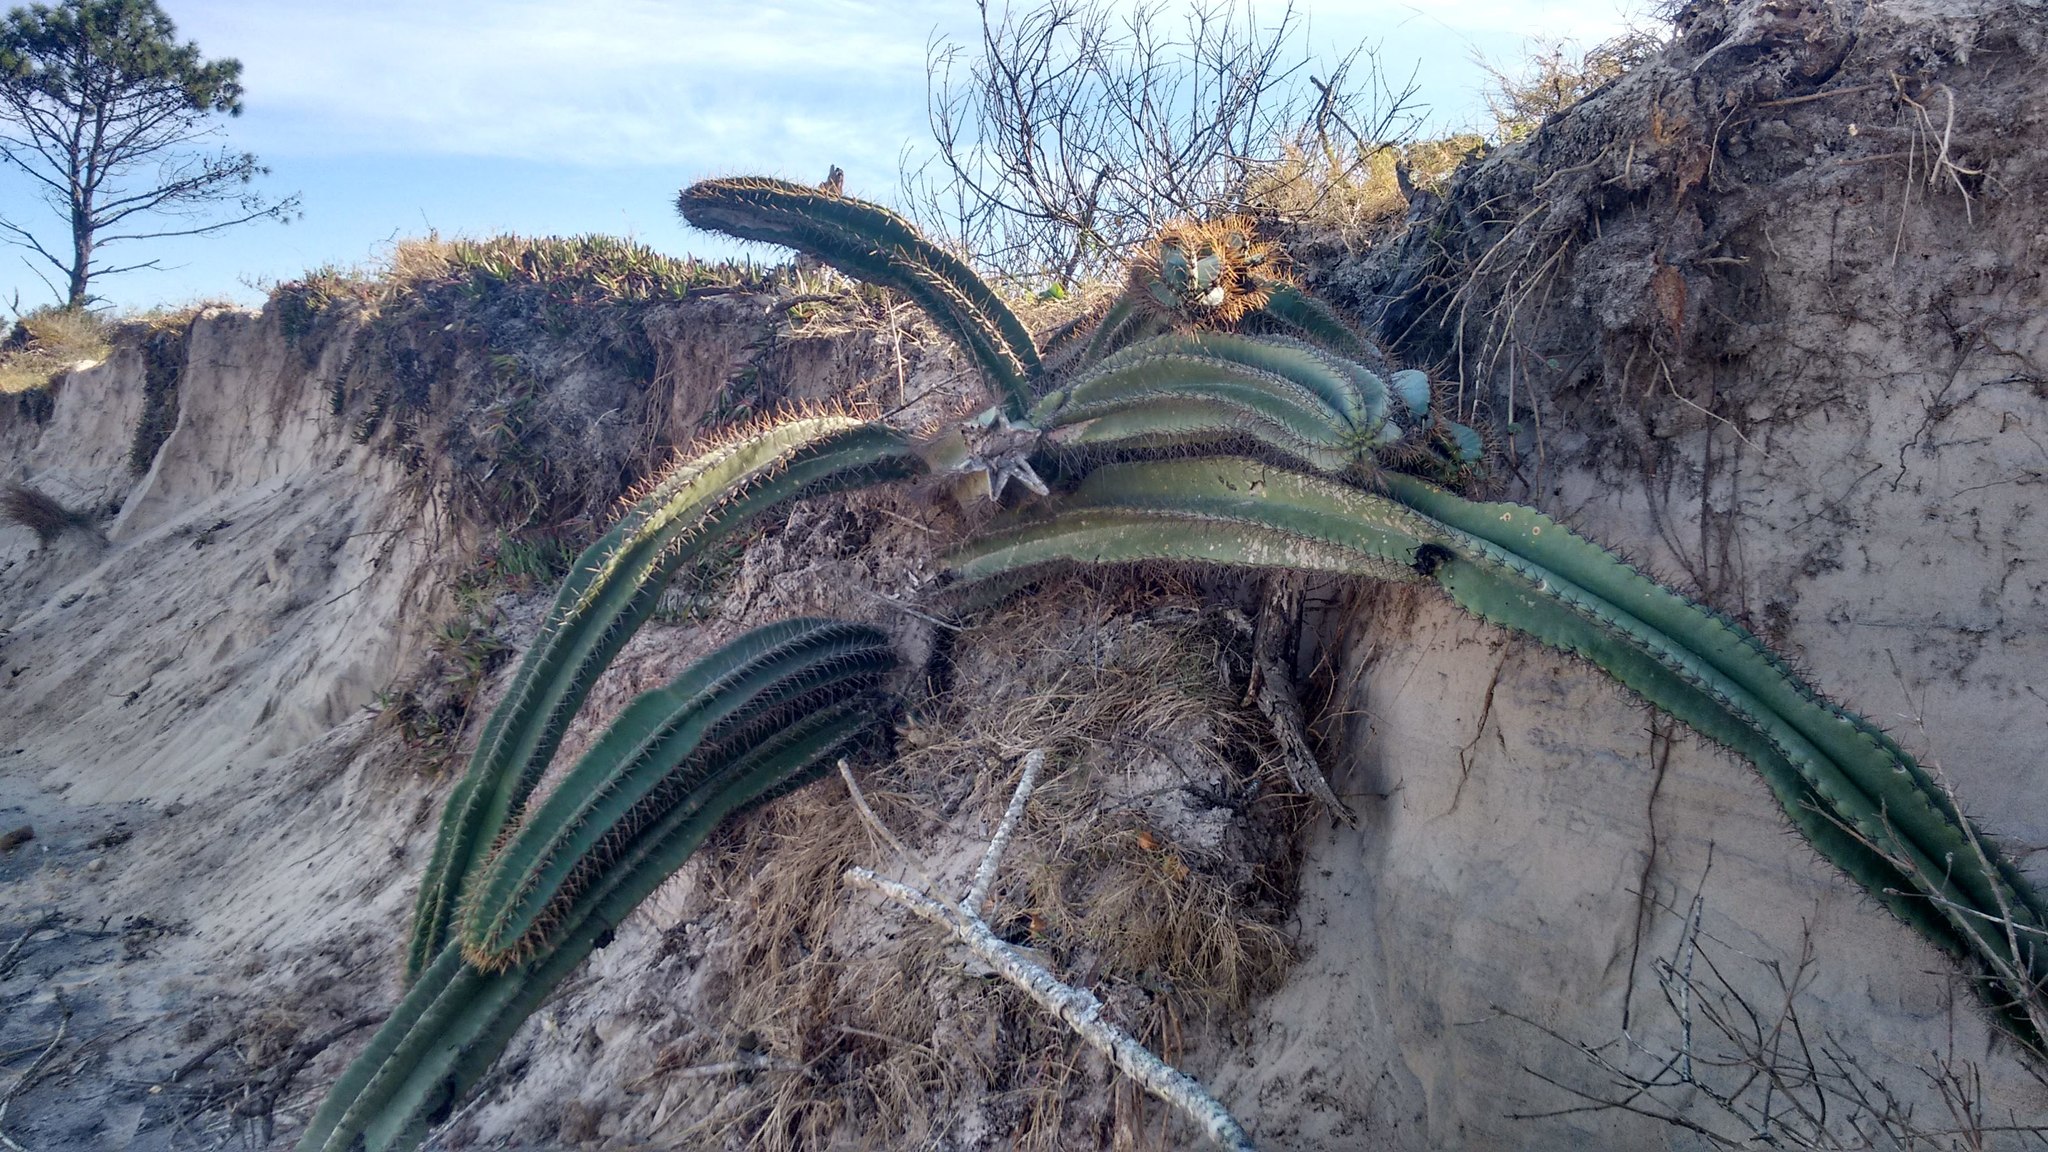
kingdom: Plantae
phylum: Tracheophyta
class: Magnoliopsida
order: Caryophyllales
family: Cactaceae
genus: Cereus
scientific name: Cereus hildmannianus
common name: Hedge cactus
